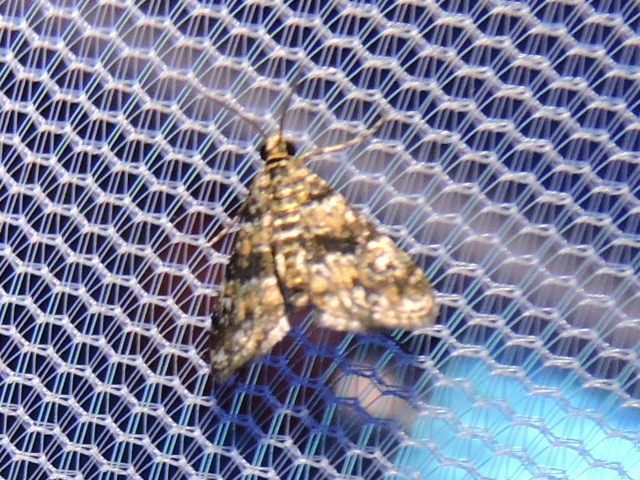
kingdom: Animalia
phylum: Arthropoda
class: Insecta
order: Lepidoptera
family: Crambidae
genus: Elophila
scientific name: Elophila obliteralis
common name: Waterlily leafcutter moth
